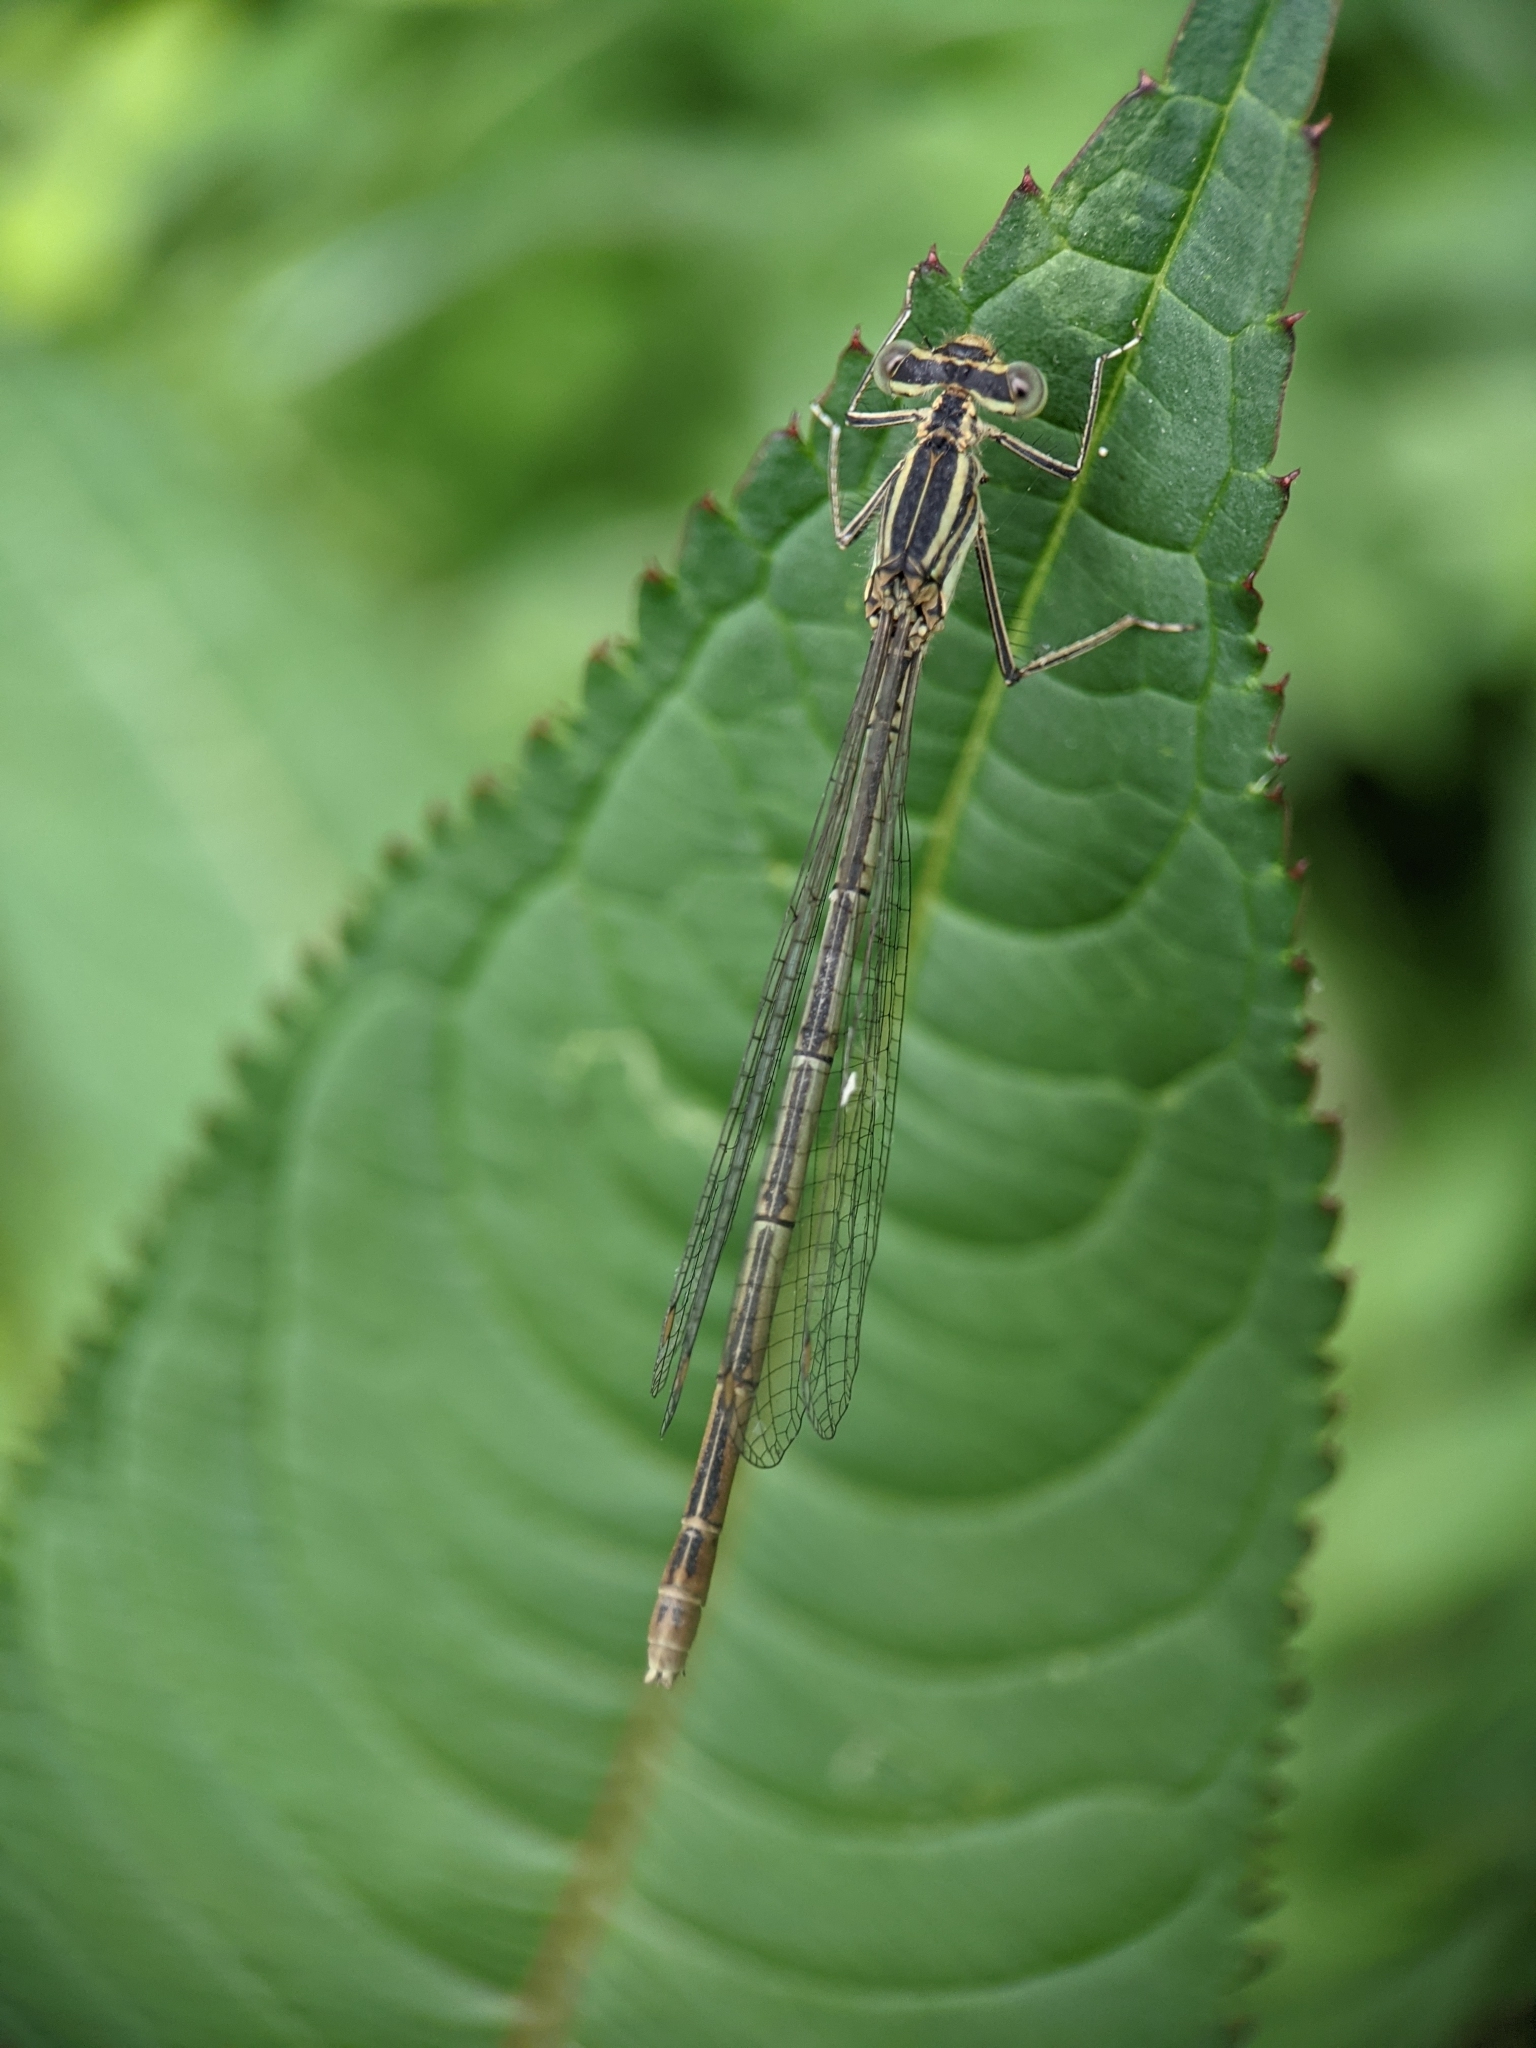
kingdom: Animalia
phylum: Arthropoda
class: Insecta
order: Odonata
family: Platycnemididae
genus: Platycnemis
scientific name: Platycnemis pennipes
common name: White-legged damselfly
